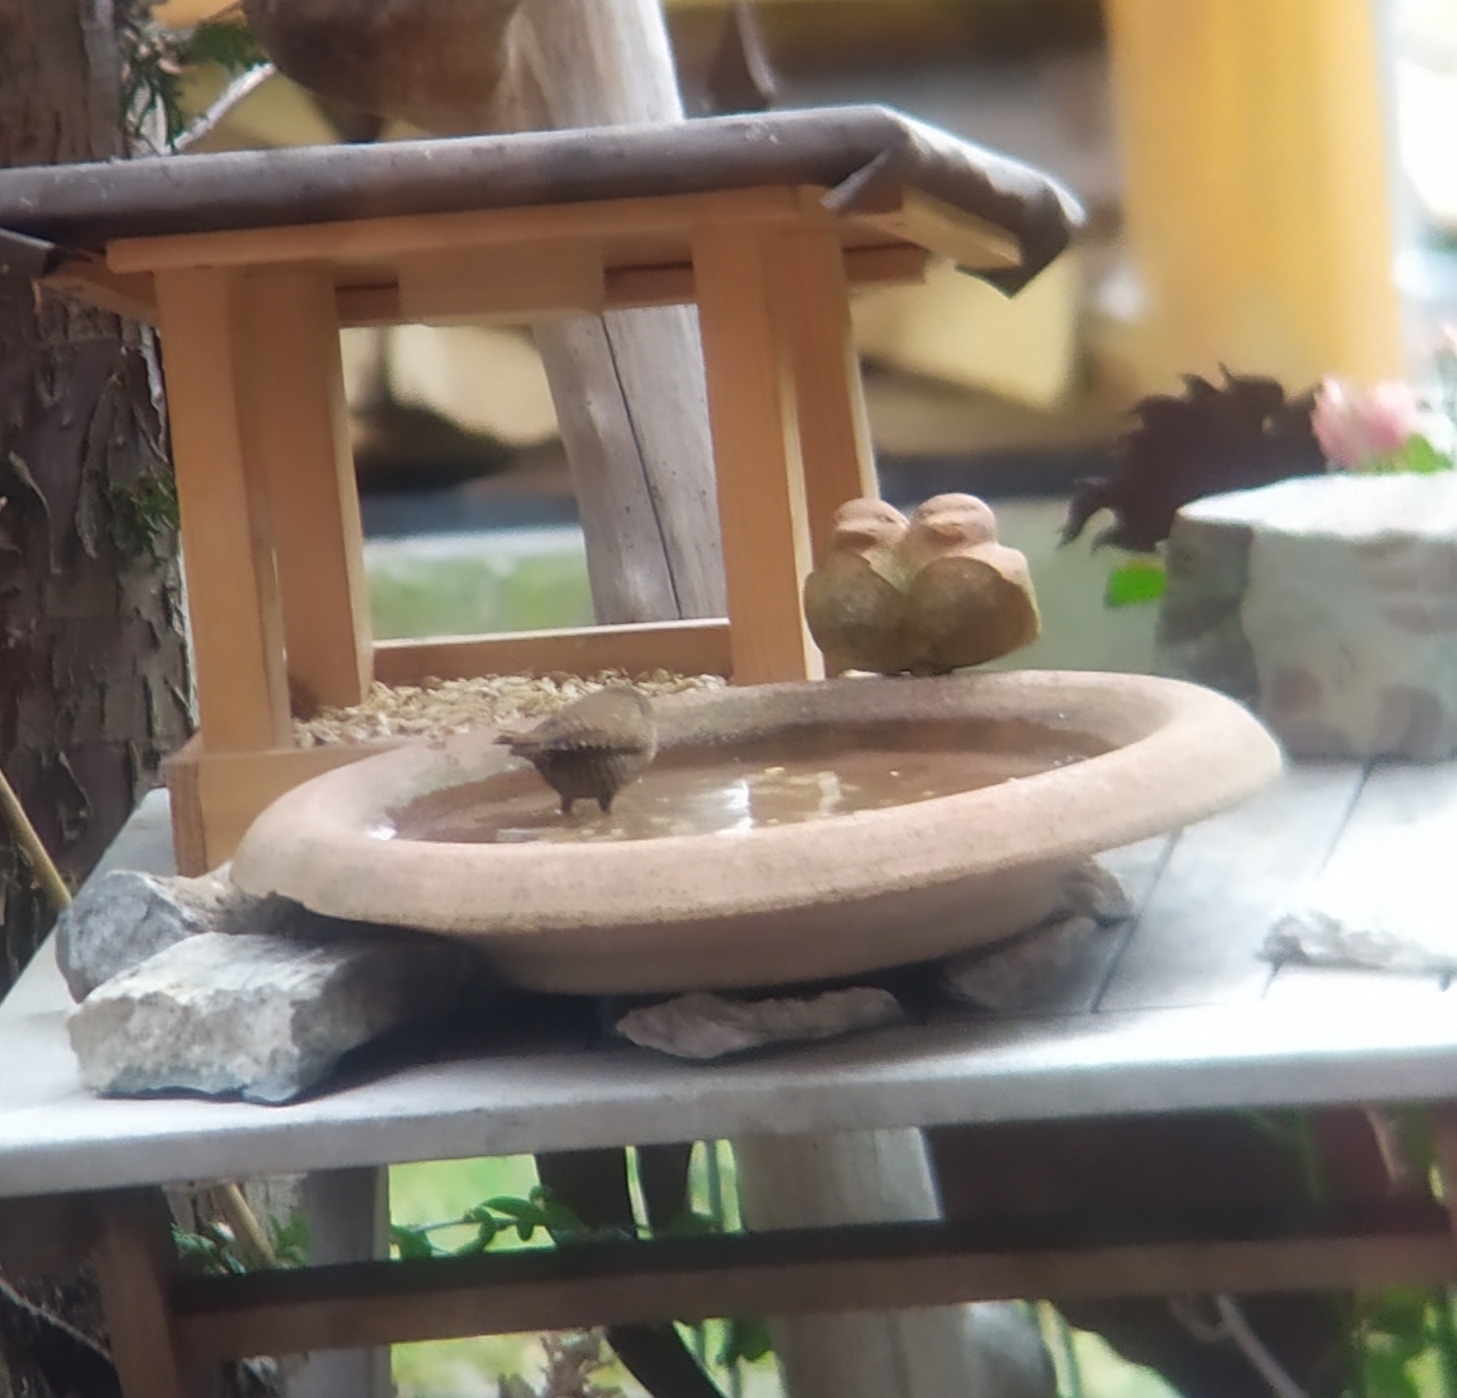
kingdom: Animalia
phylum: Chordata
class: Aves
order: Passeriformes
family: Troglodytidae
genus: Troglodytes
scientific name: Troglodytes troglodytes
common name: Eurasian wren
